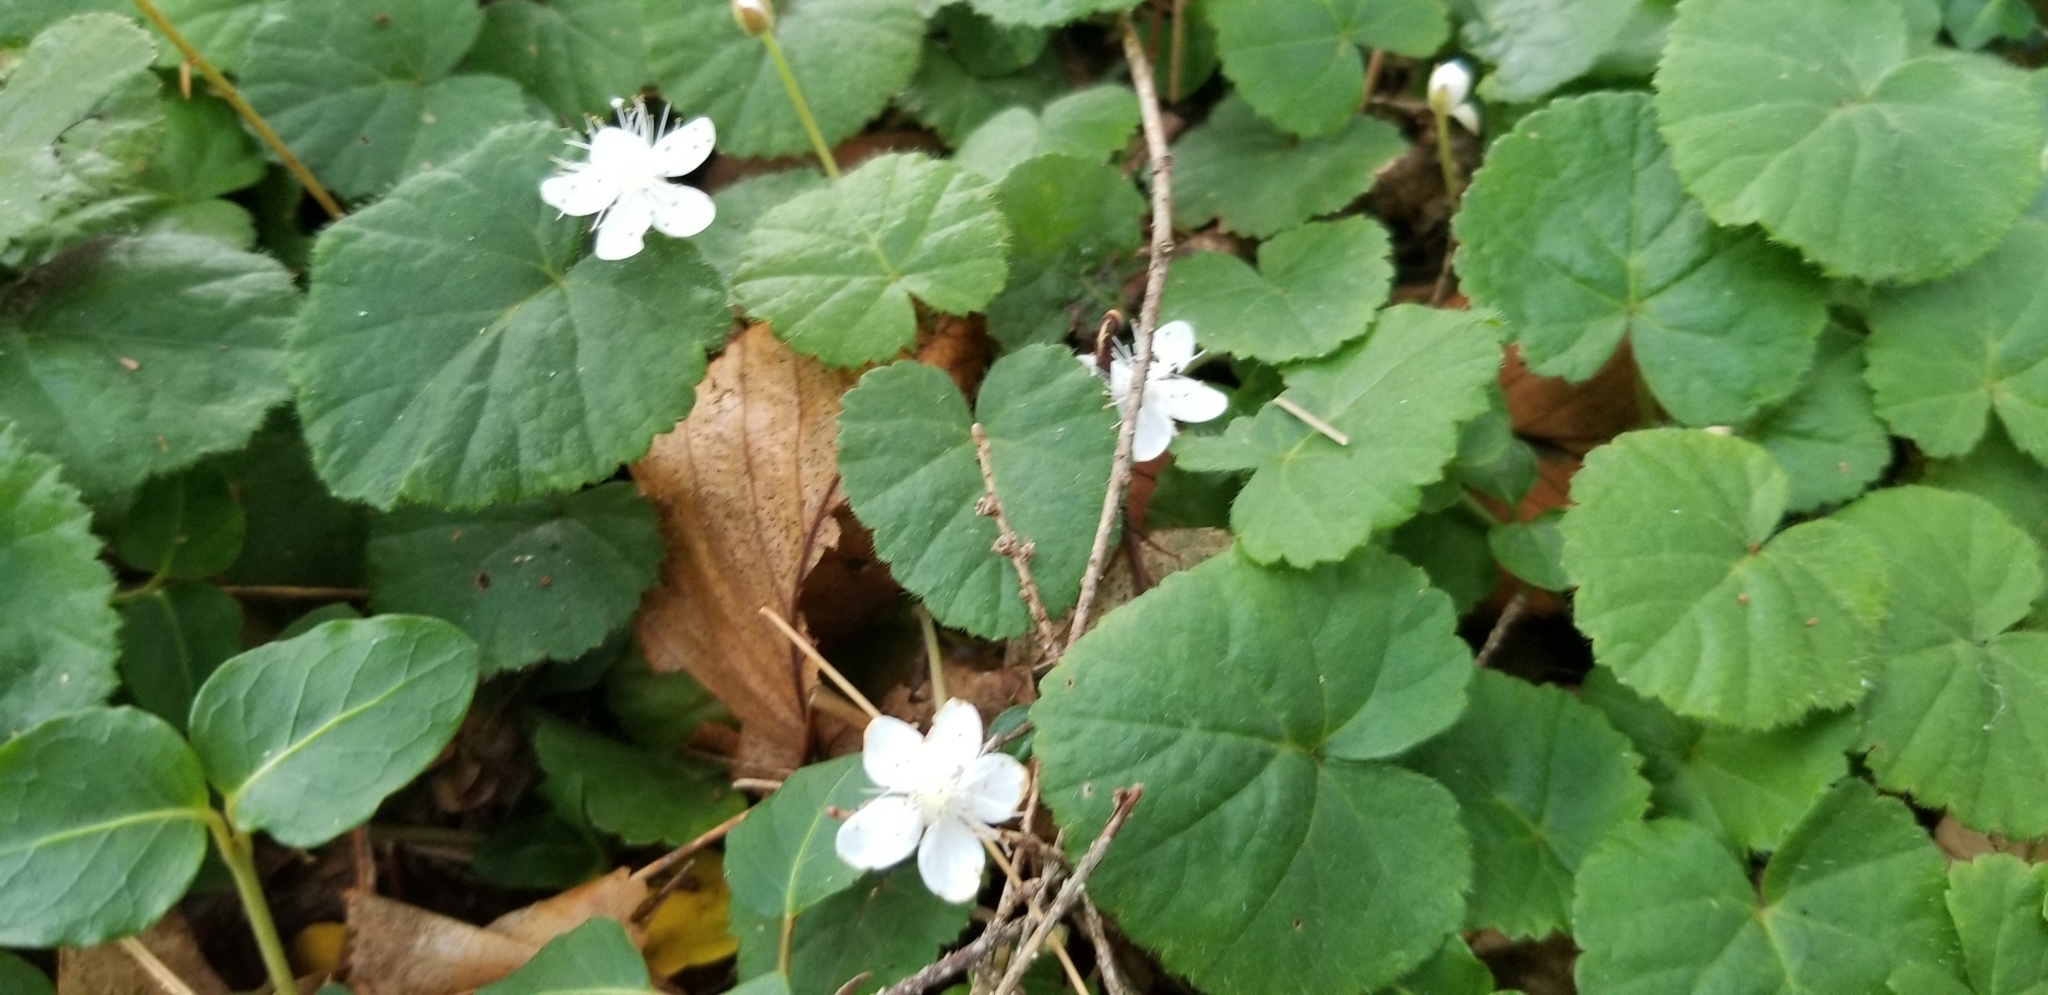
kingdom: Plantae
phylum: Tracheophyta
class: Magnoliopsida
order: Rosales
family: Rosaceae
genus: Dalibarda
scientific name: Dalibarda repens
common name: Dewdrop
